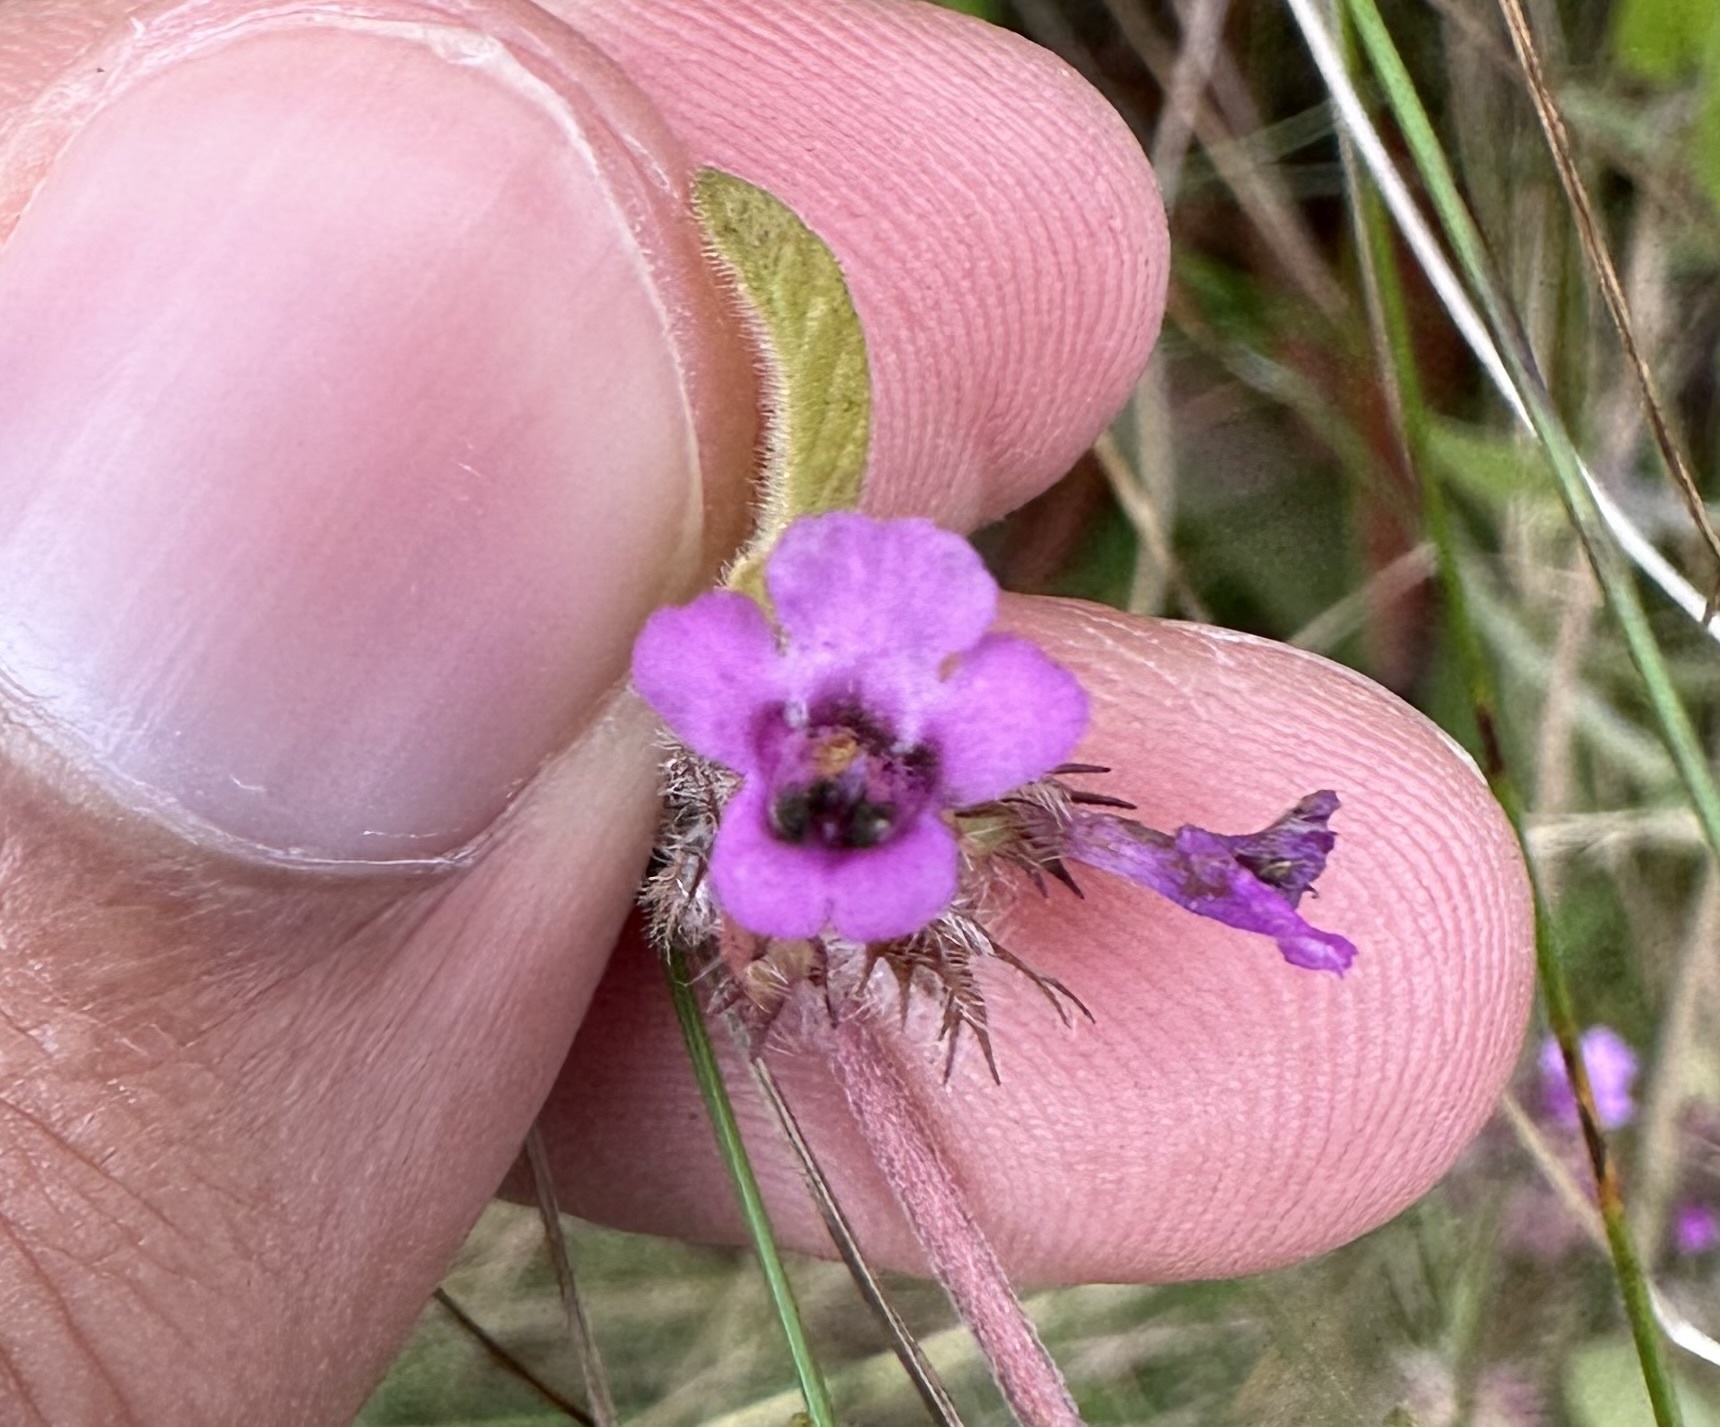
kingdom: Plantae
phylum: Tracheophyta
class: Magnoliopsida
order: Lamiales
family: Lamiaceae
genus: Clinopodium
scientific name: Clinopodium vulgare
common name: Wild basil
